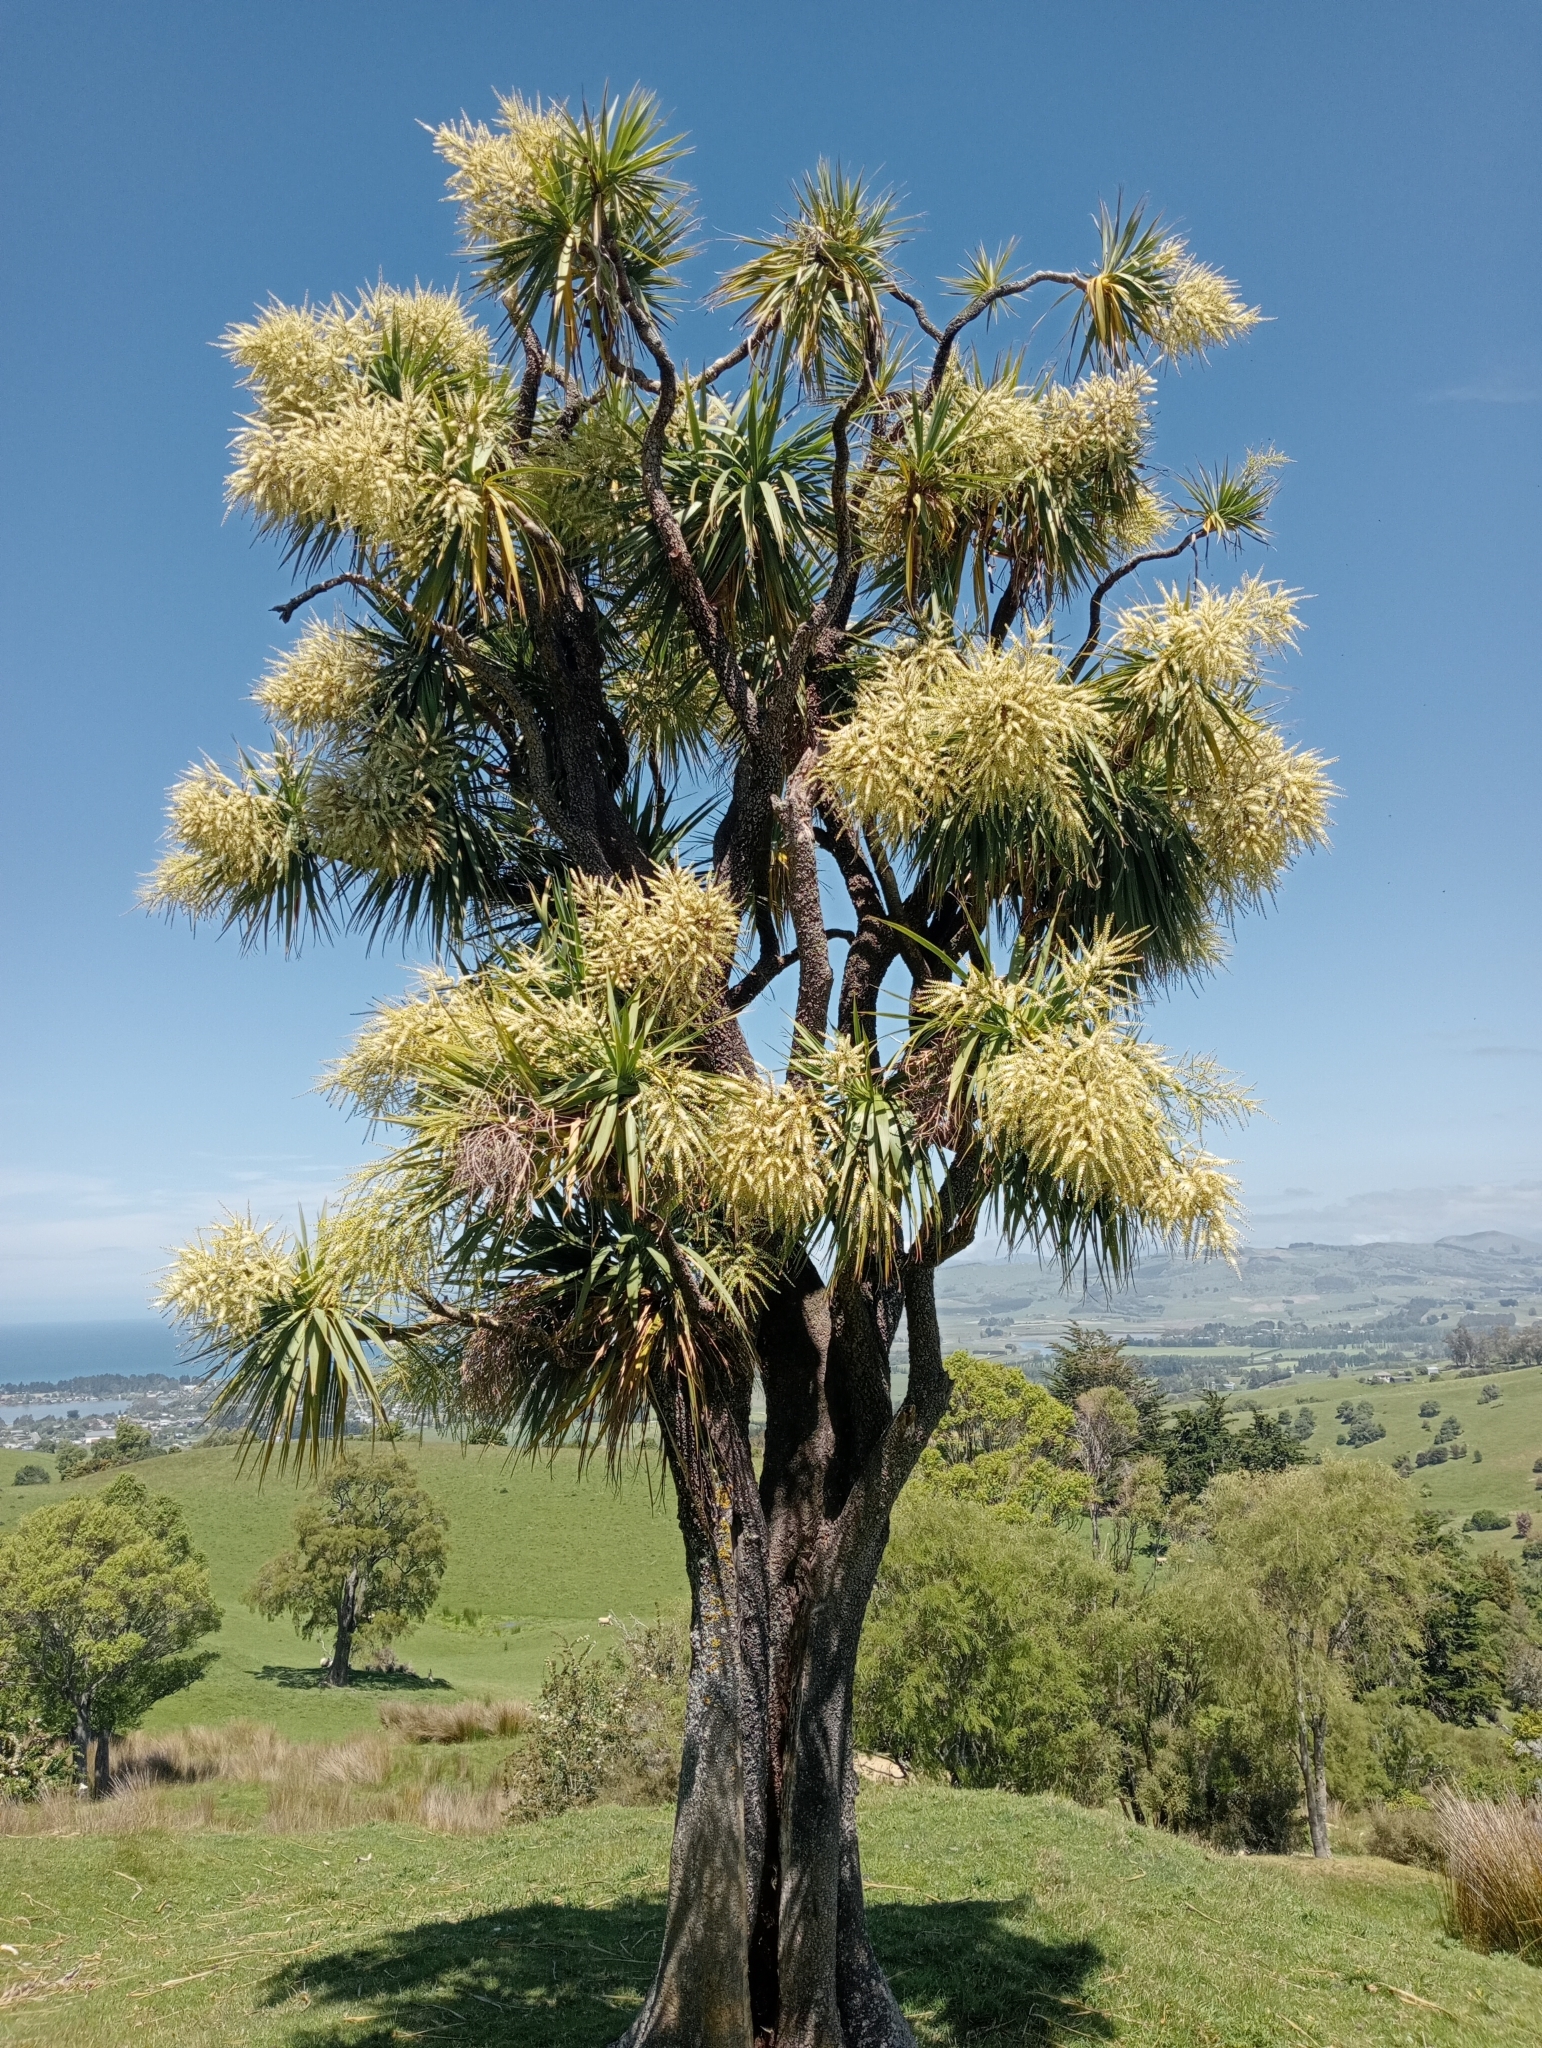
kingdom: Plantae
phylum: Tracheophyta
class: Liliopsida
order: Asparagales
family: Asparagaceae
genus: Cordyline
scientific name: Cordyline australis
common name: Cabbage-palm
